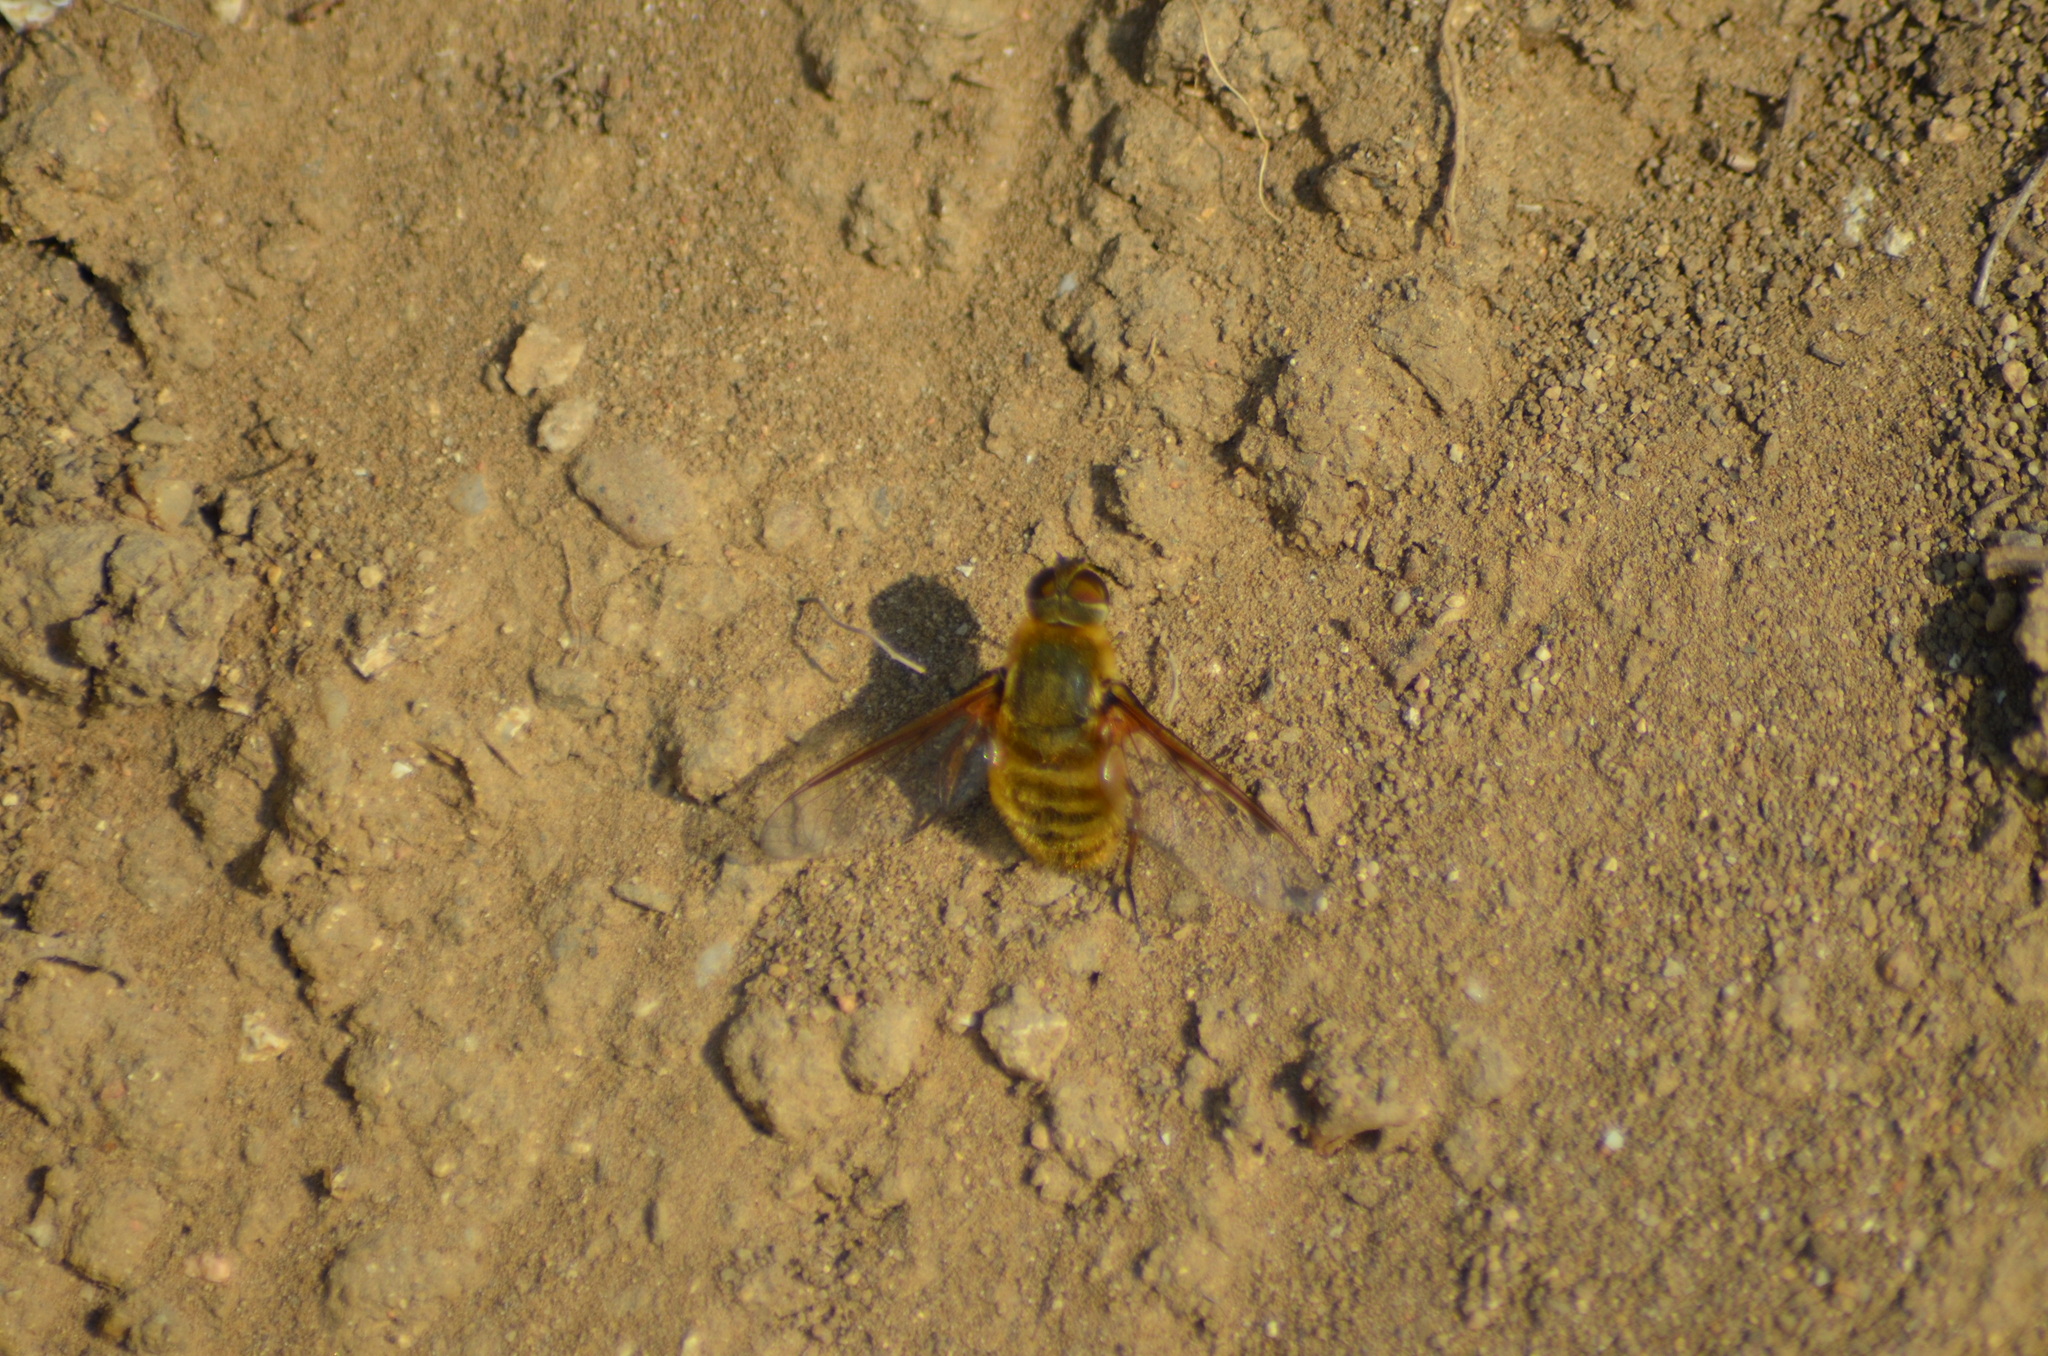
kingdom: Animalia
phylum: Arthropoda
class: Insecta
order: Diptera
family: Bombyliidae
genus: Villa
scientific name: Villa hottentotta
